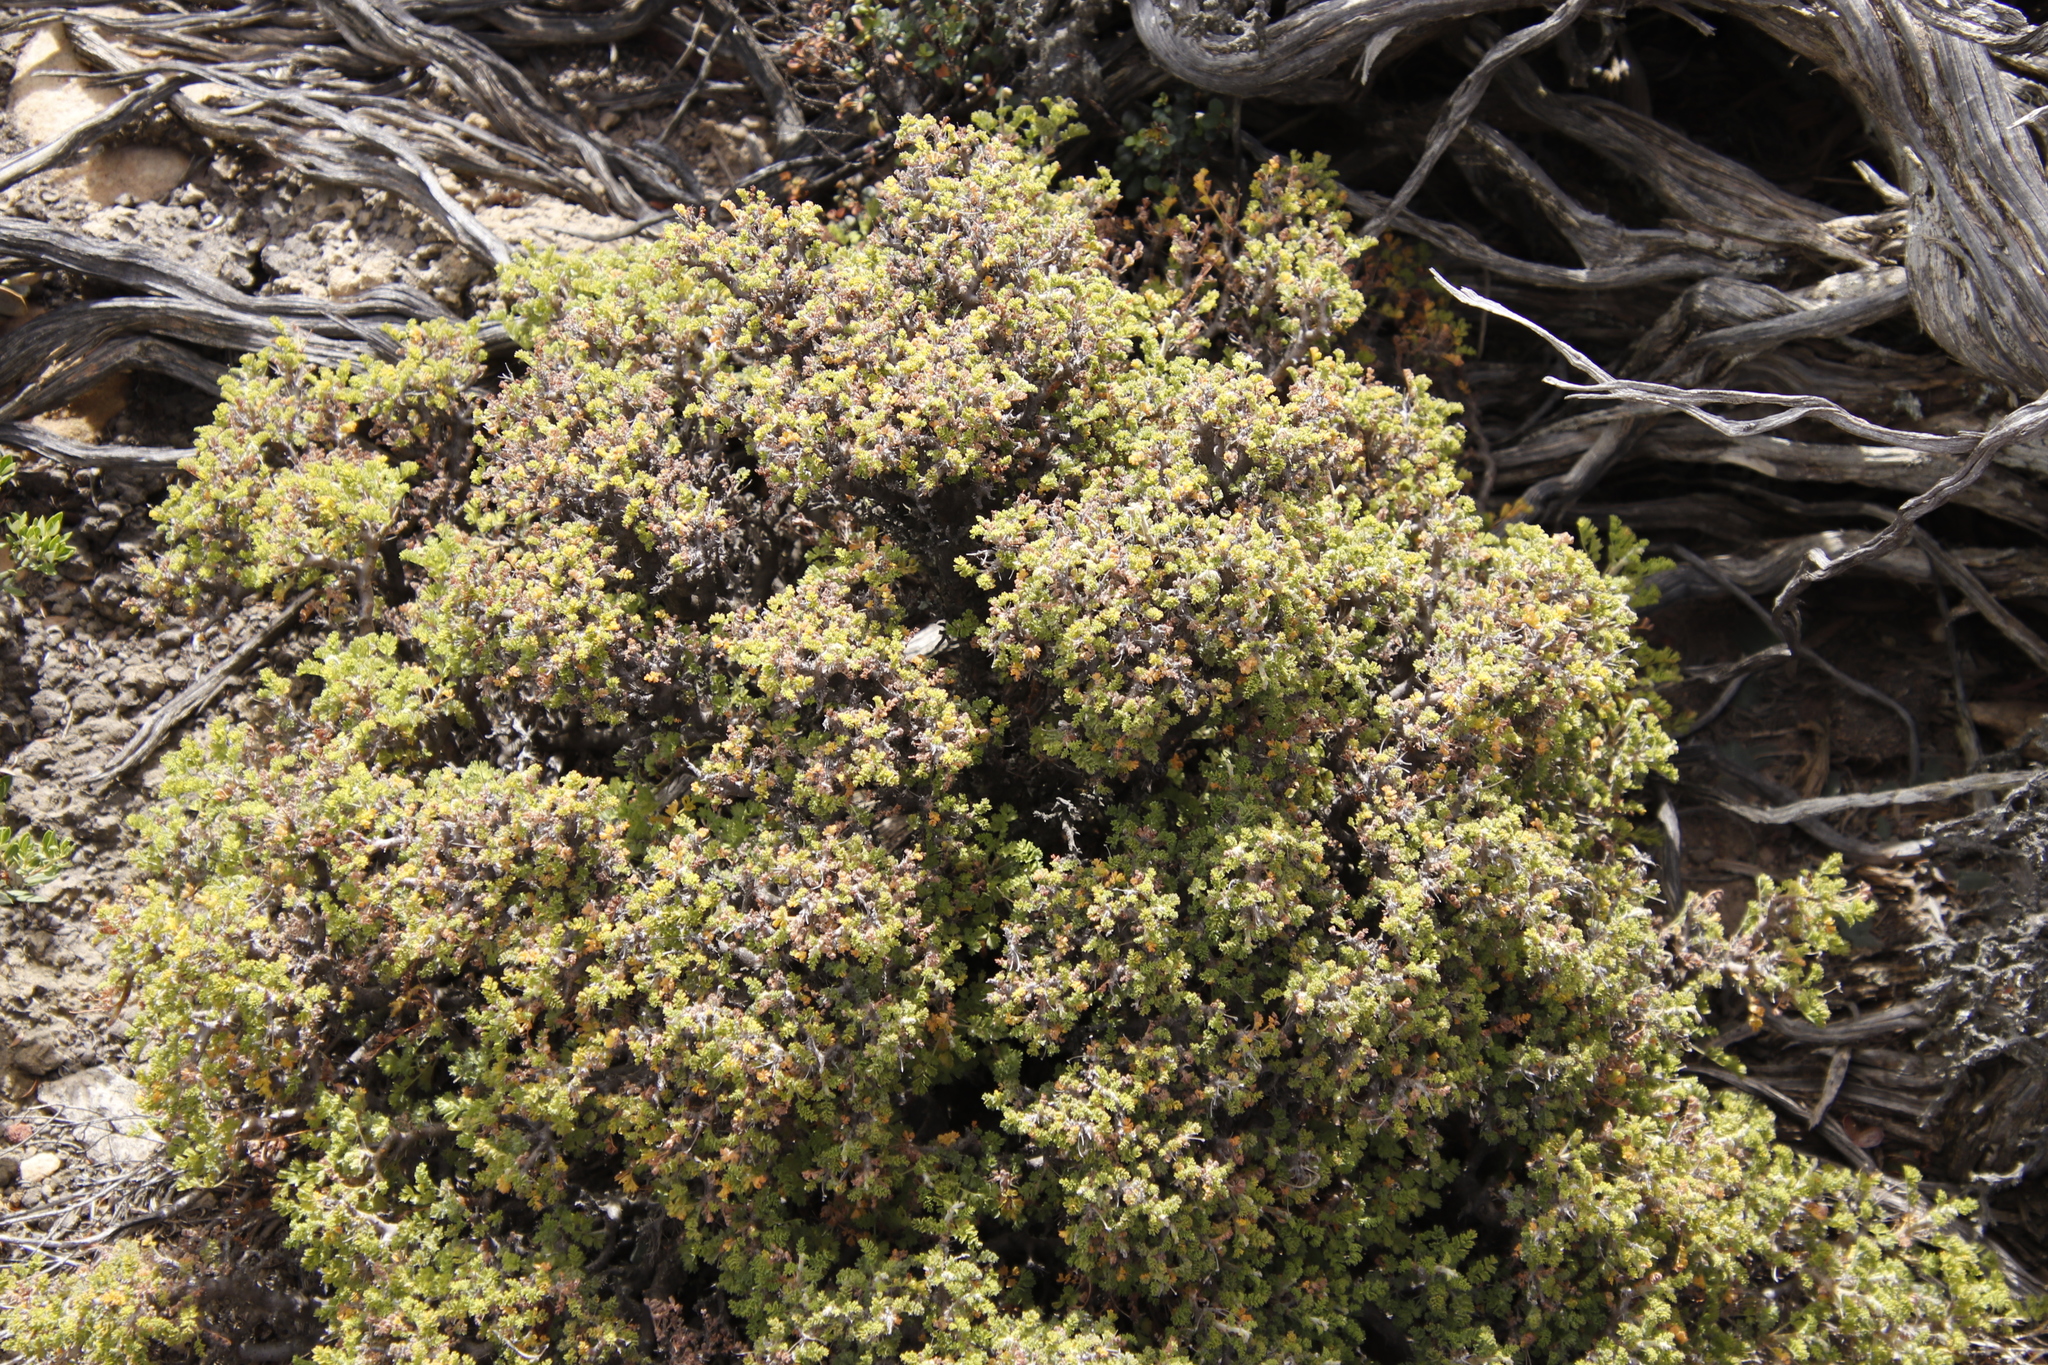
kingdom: Plantae
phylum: Tracheophyta
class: Magnoliopsida
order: Geraniales
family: Geraniaceae
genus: Pelargonium
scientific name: Pelargonium alternans
